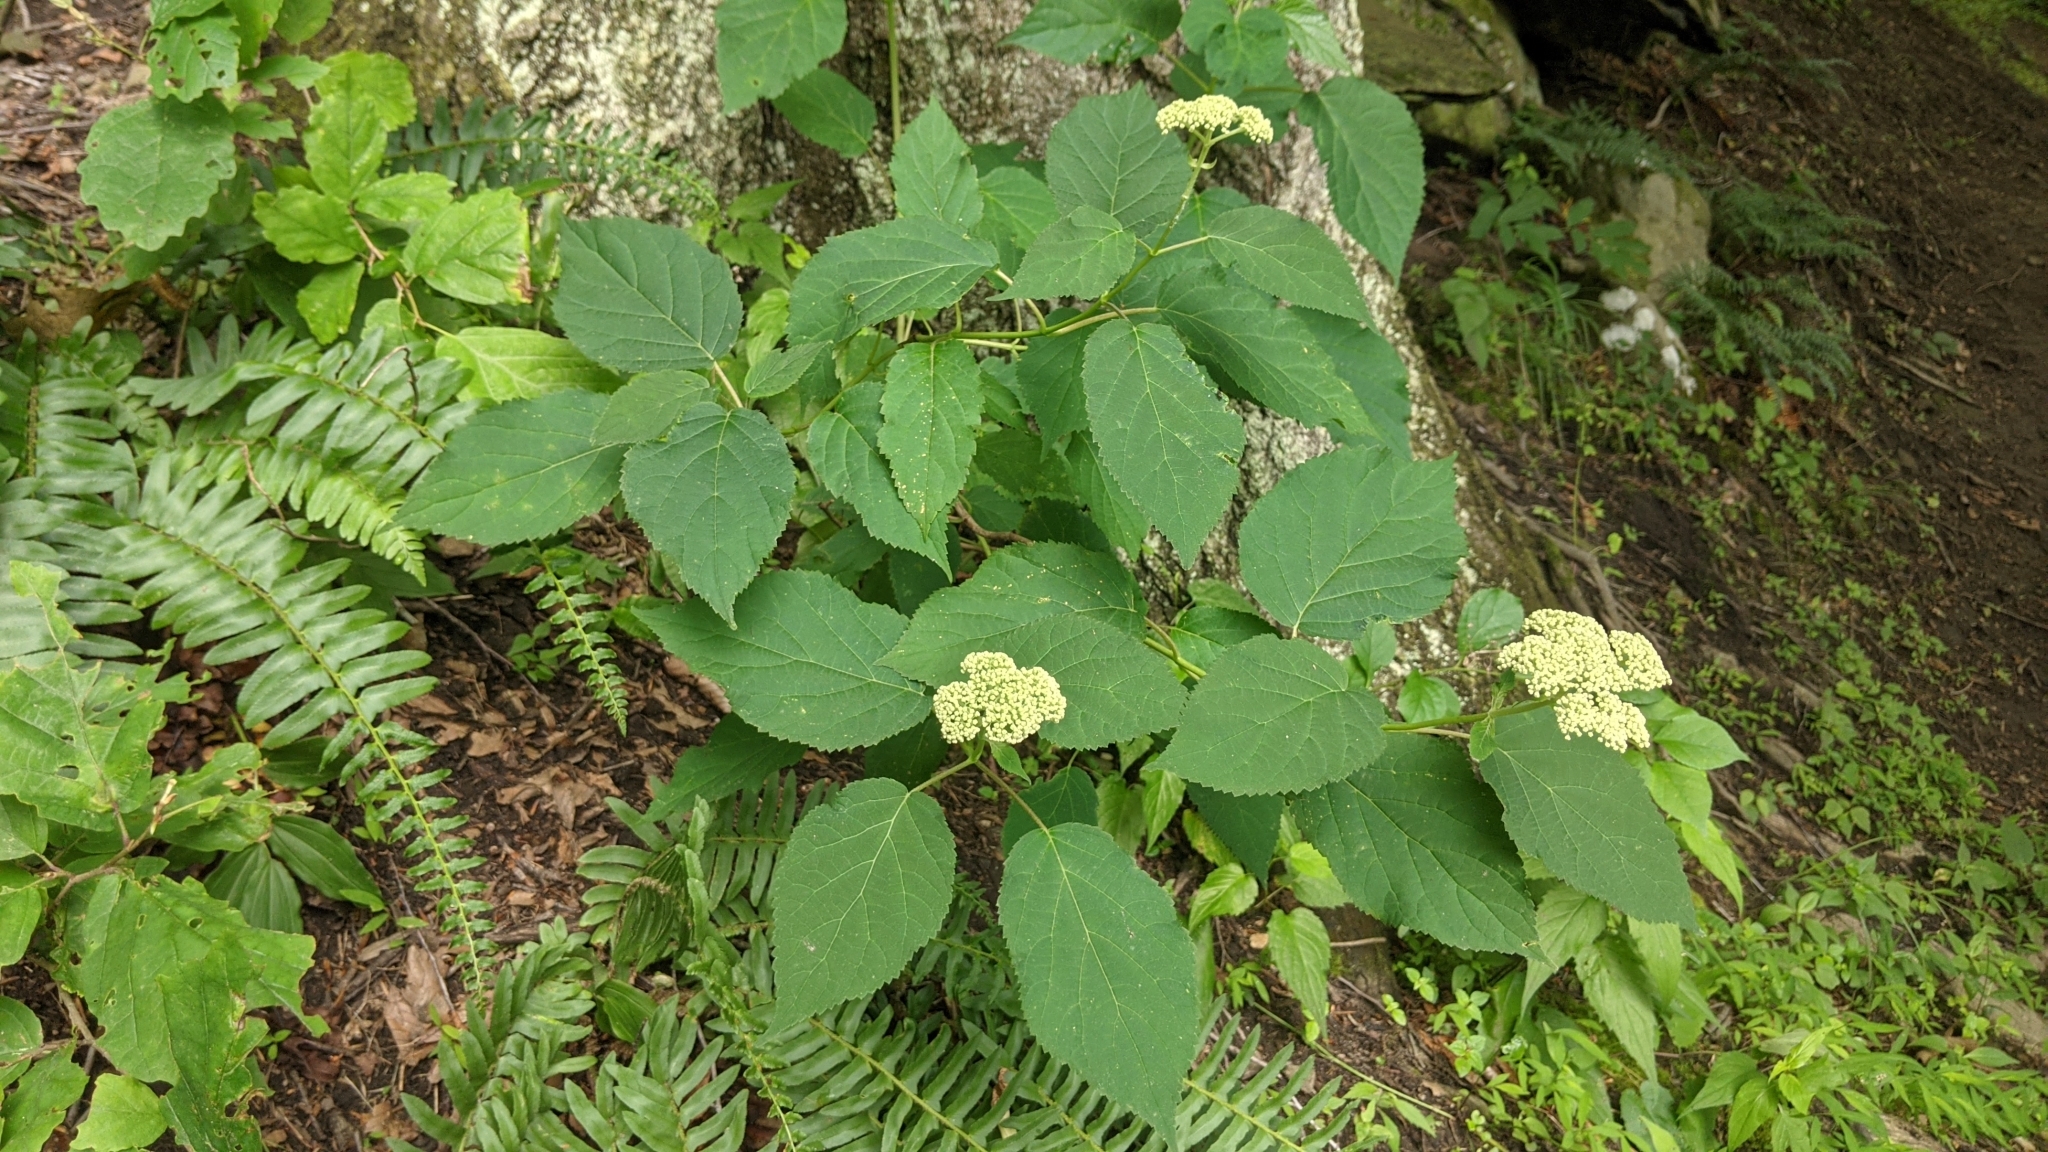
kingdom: Plantae
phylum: Tracheophyta
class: Magnoliopsida
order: Cornales
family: Hydrangeaceae
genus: Hydrangea
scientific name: Hydrangea arborescens
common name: Sevenbark
